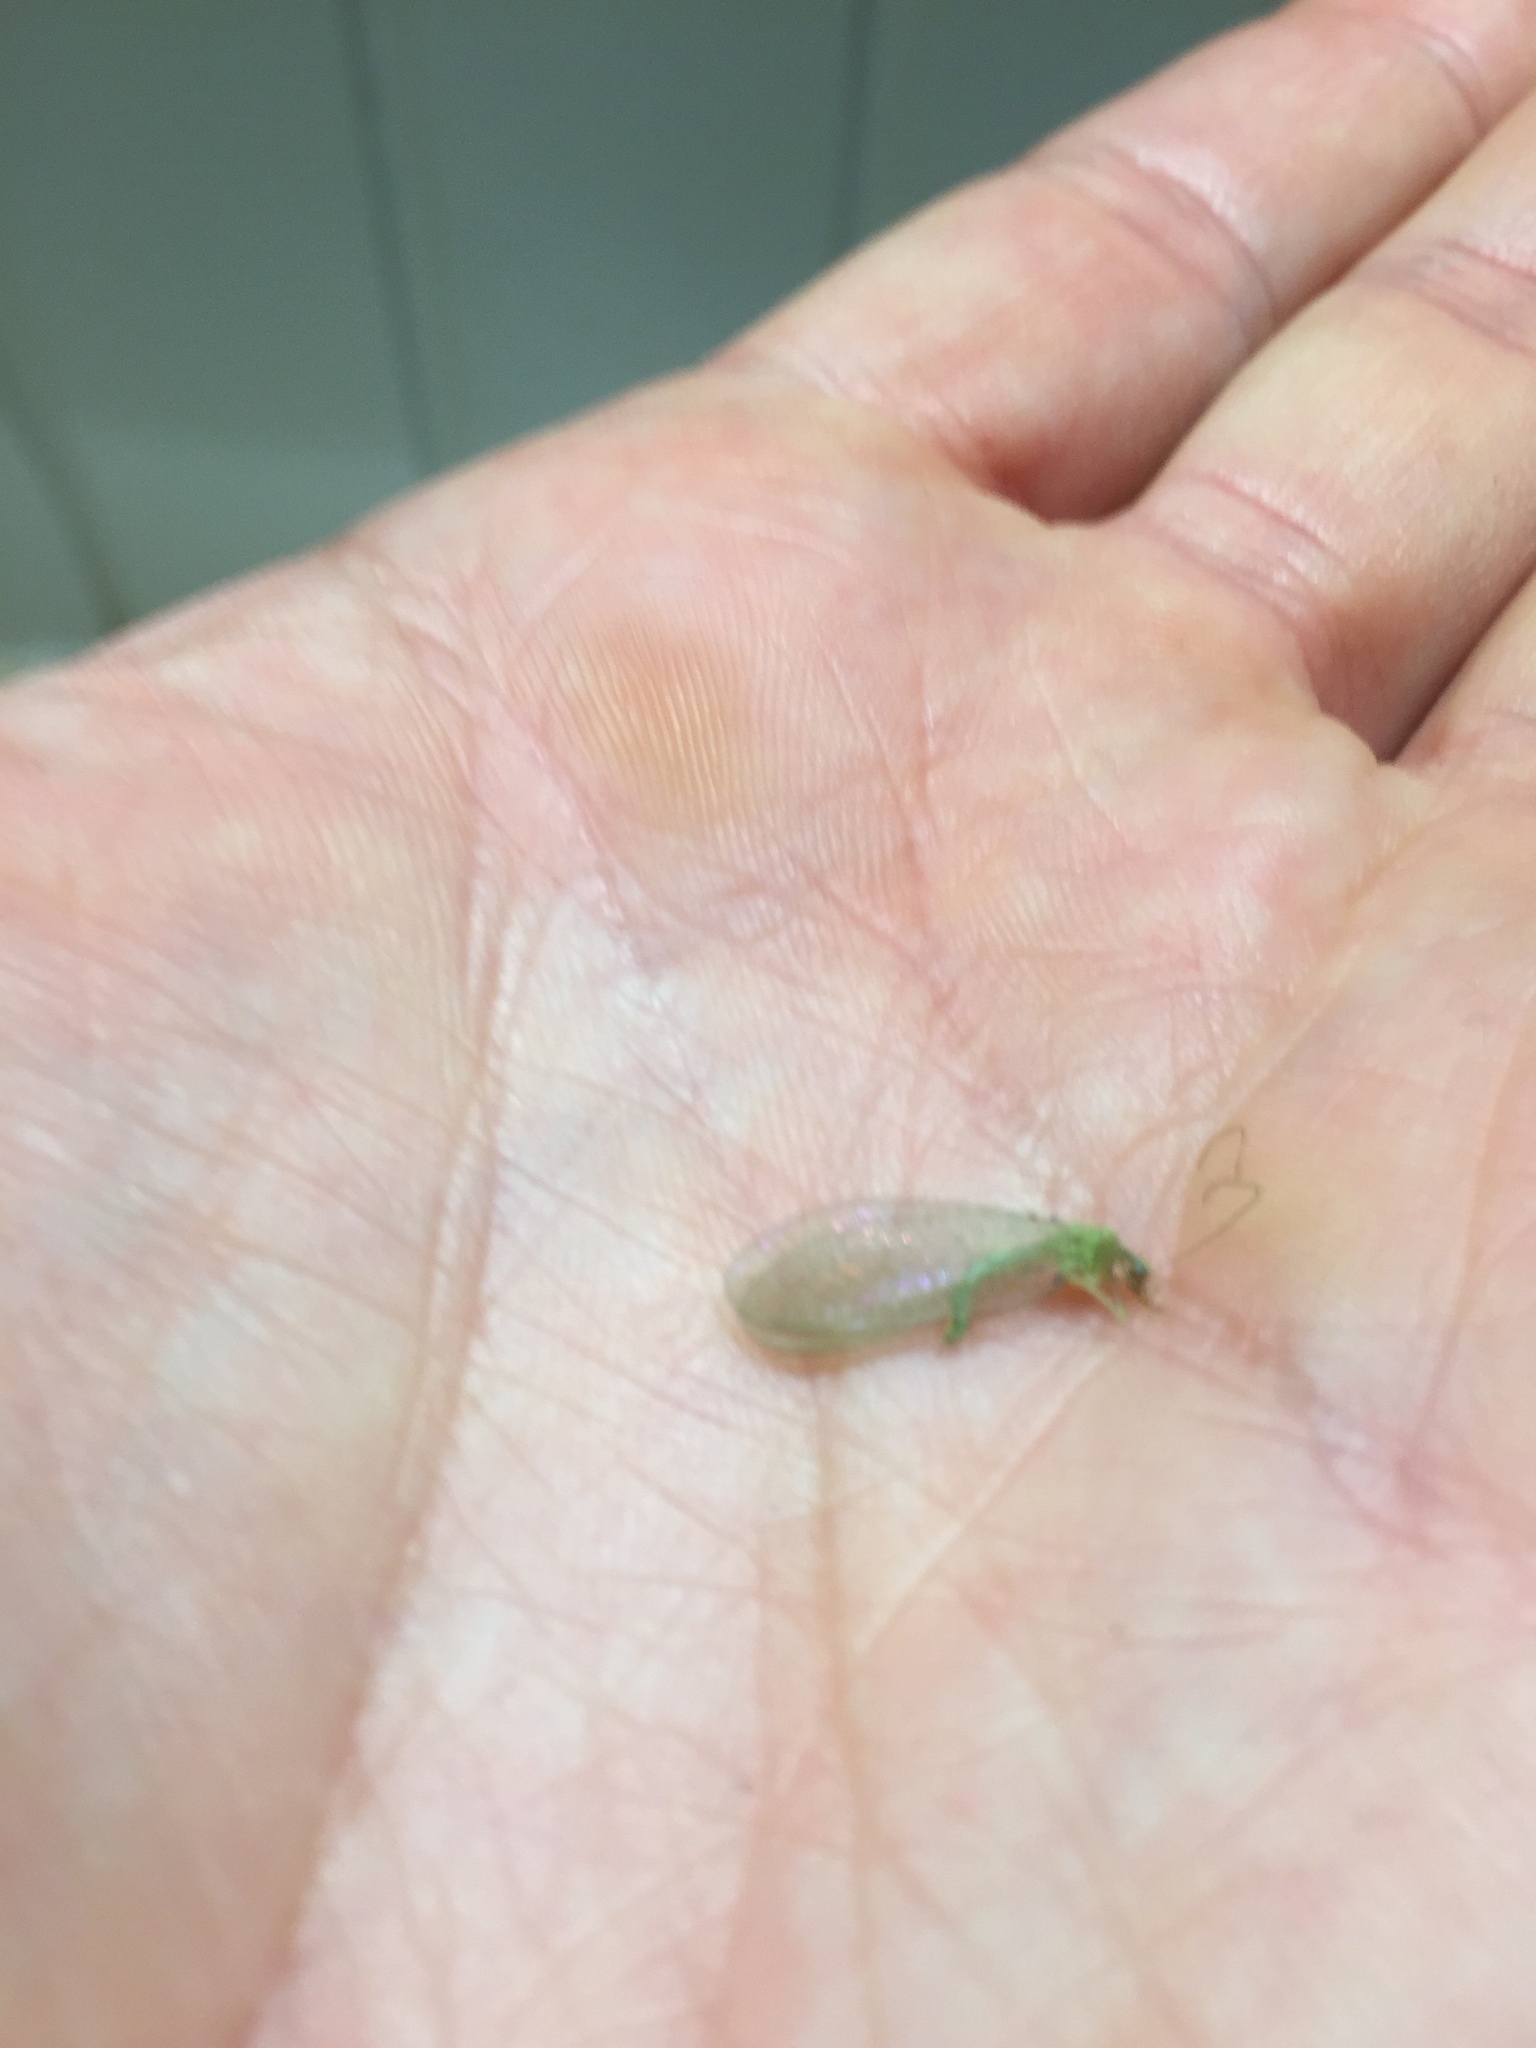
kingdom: Animalia
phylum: Arthropoda
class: Insecta
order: Neuroptera
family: Chrysopidae
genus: Chrysoperla
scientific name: Chrysoperla
